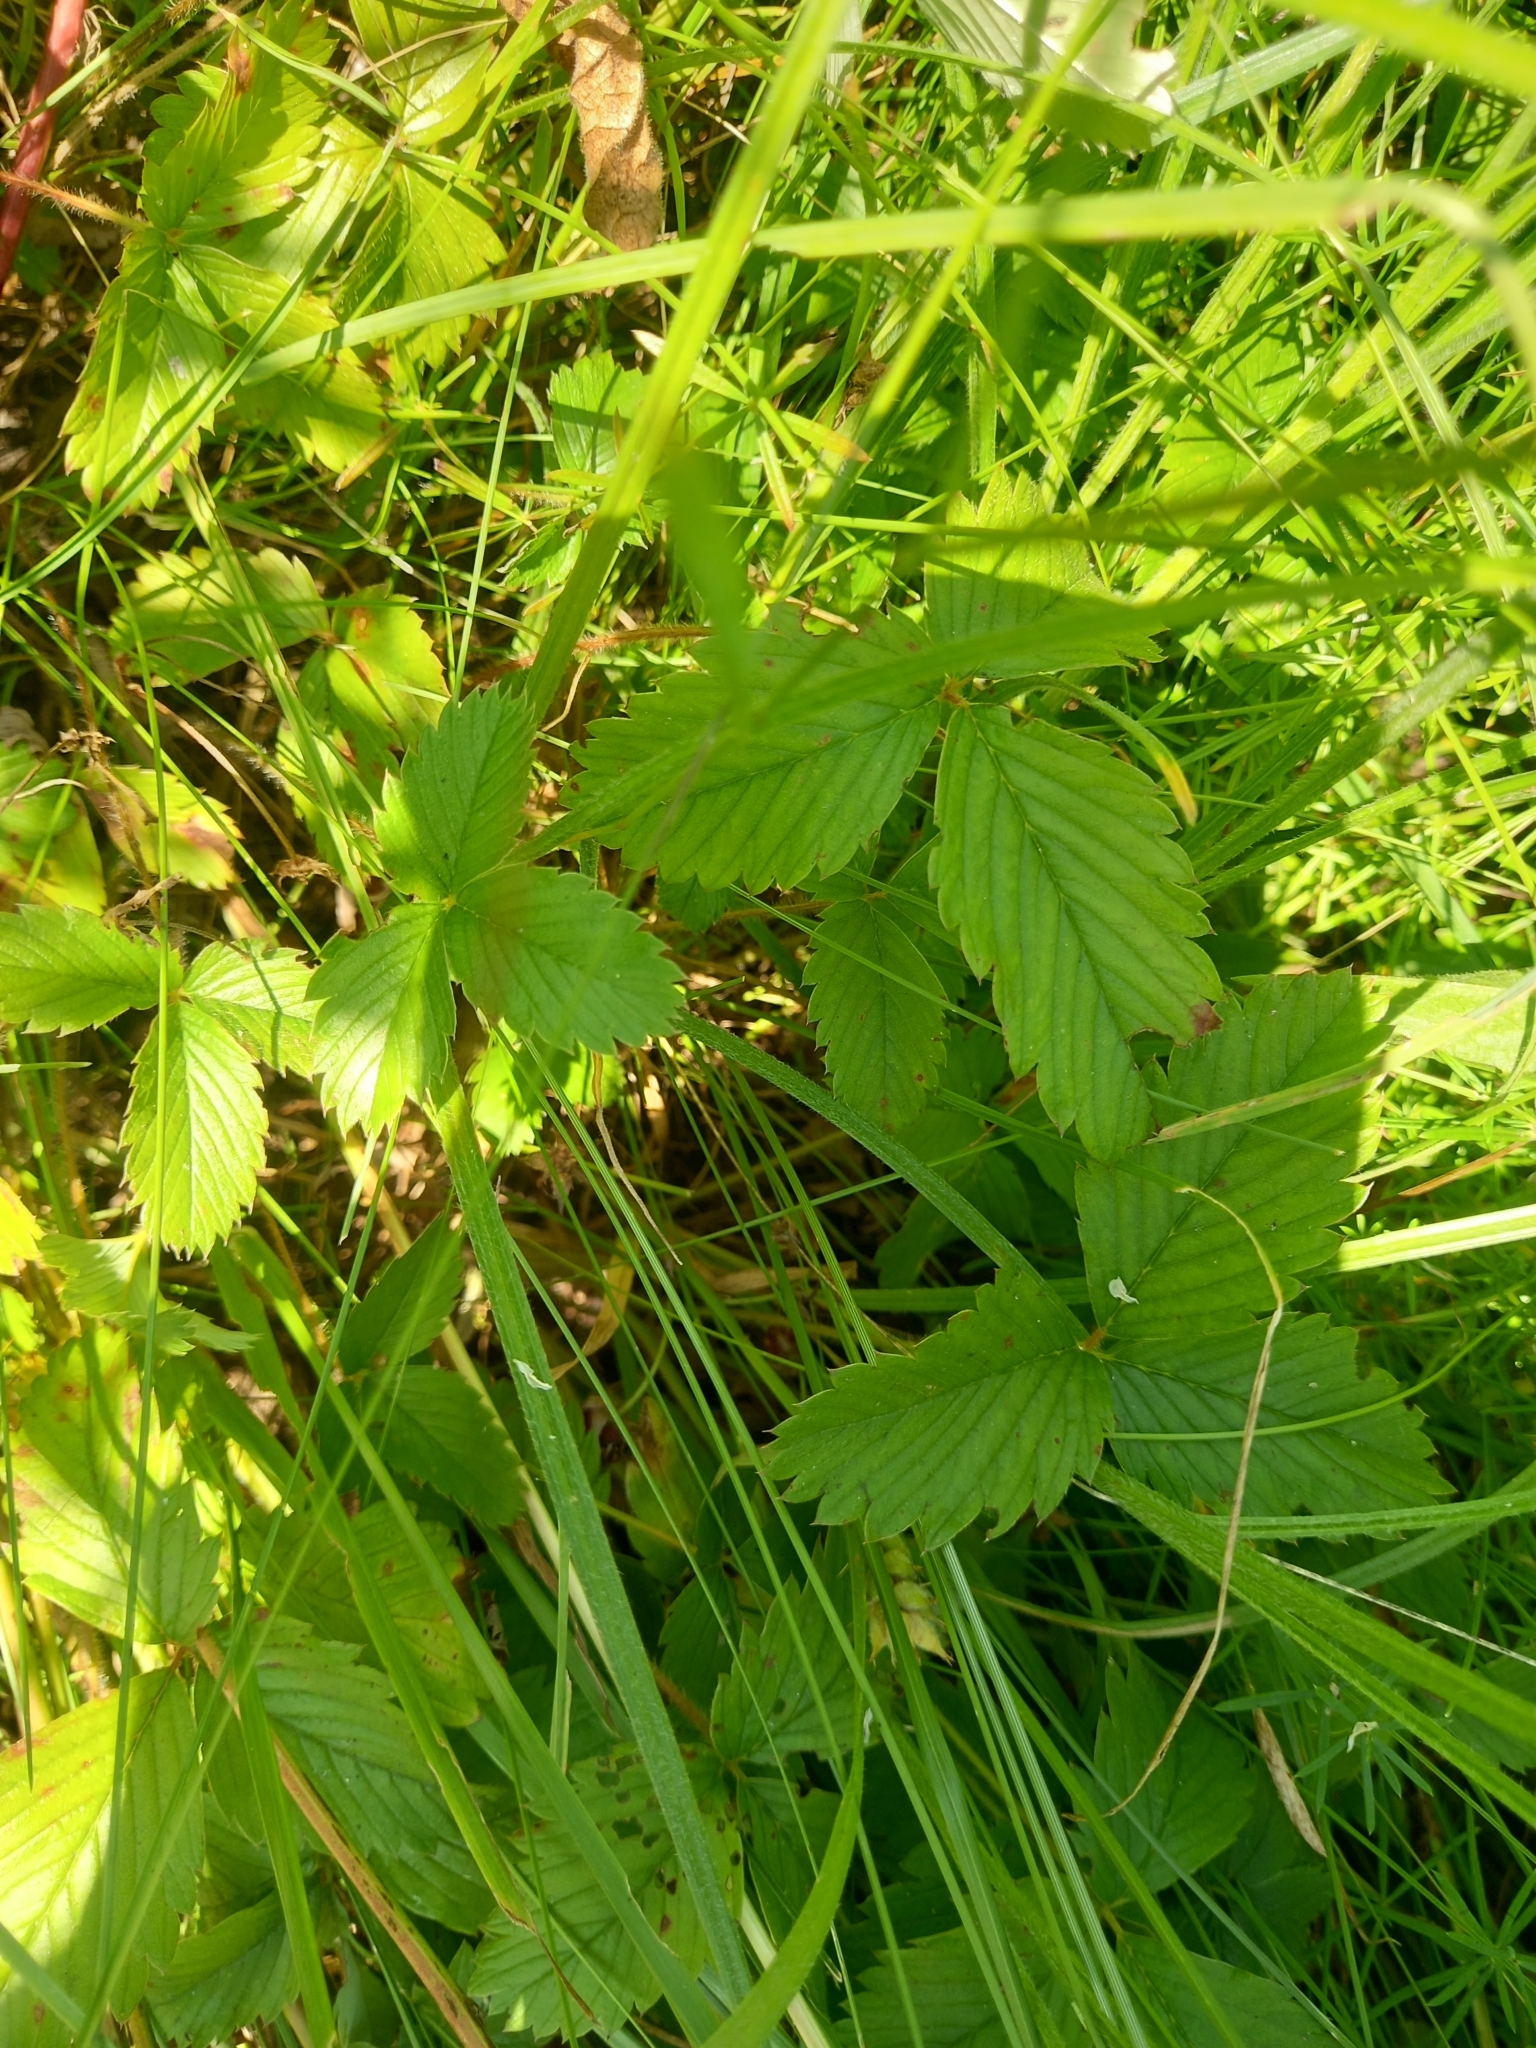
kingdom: Plantae
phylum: Tracheophyta
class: Magnoliopsida
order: Rosales
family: Rosaceae
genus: Fragaria
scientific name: Fragaria viridis
